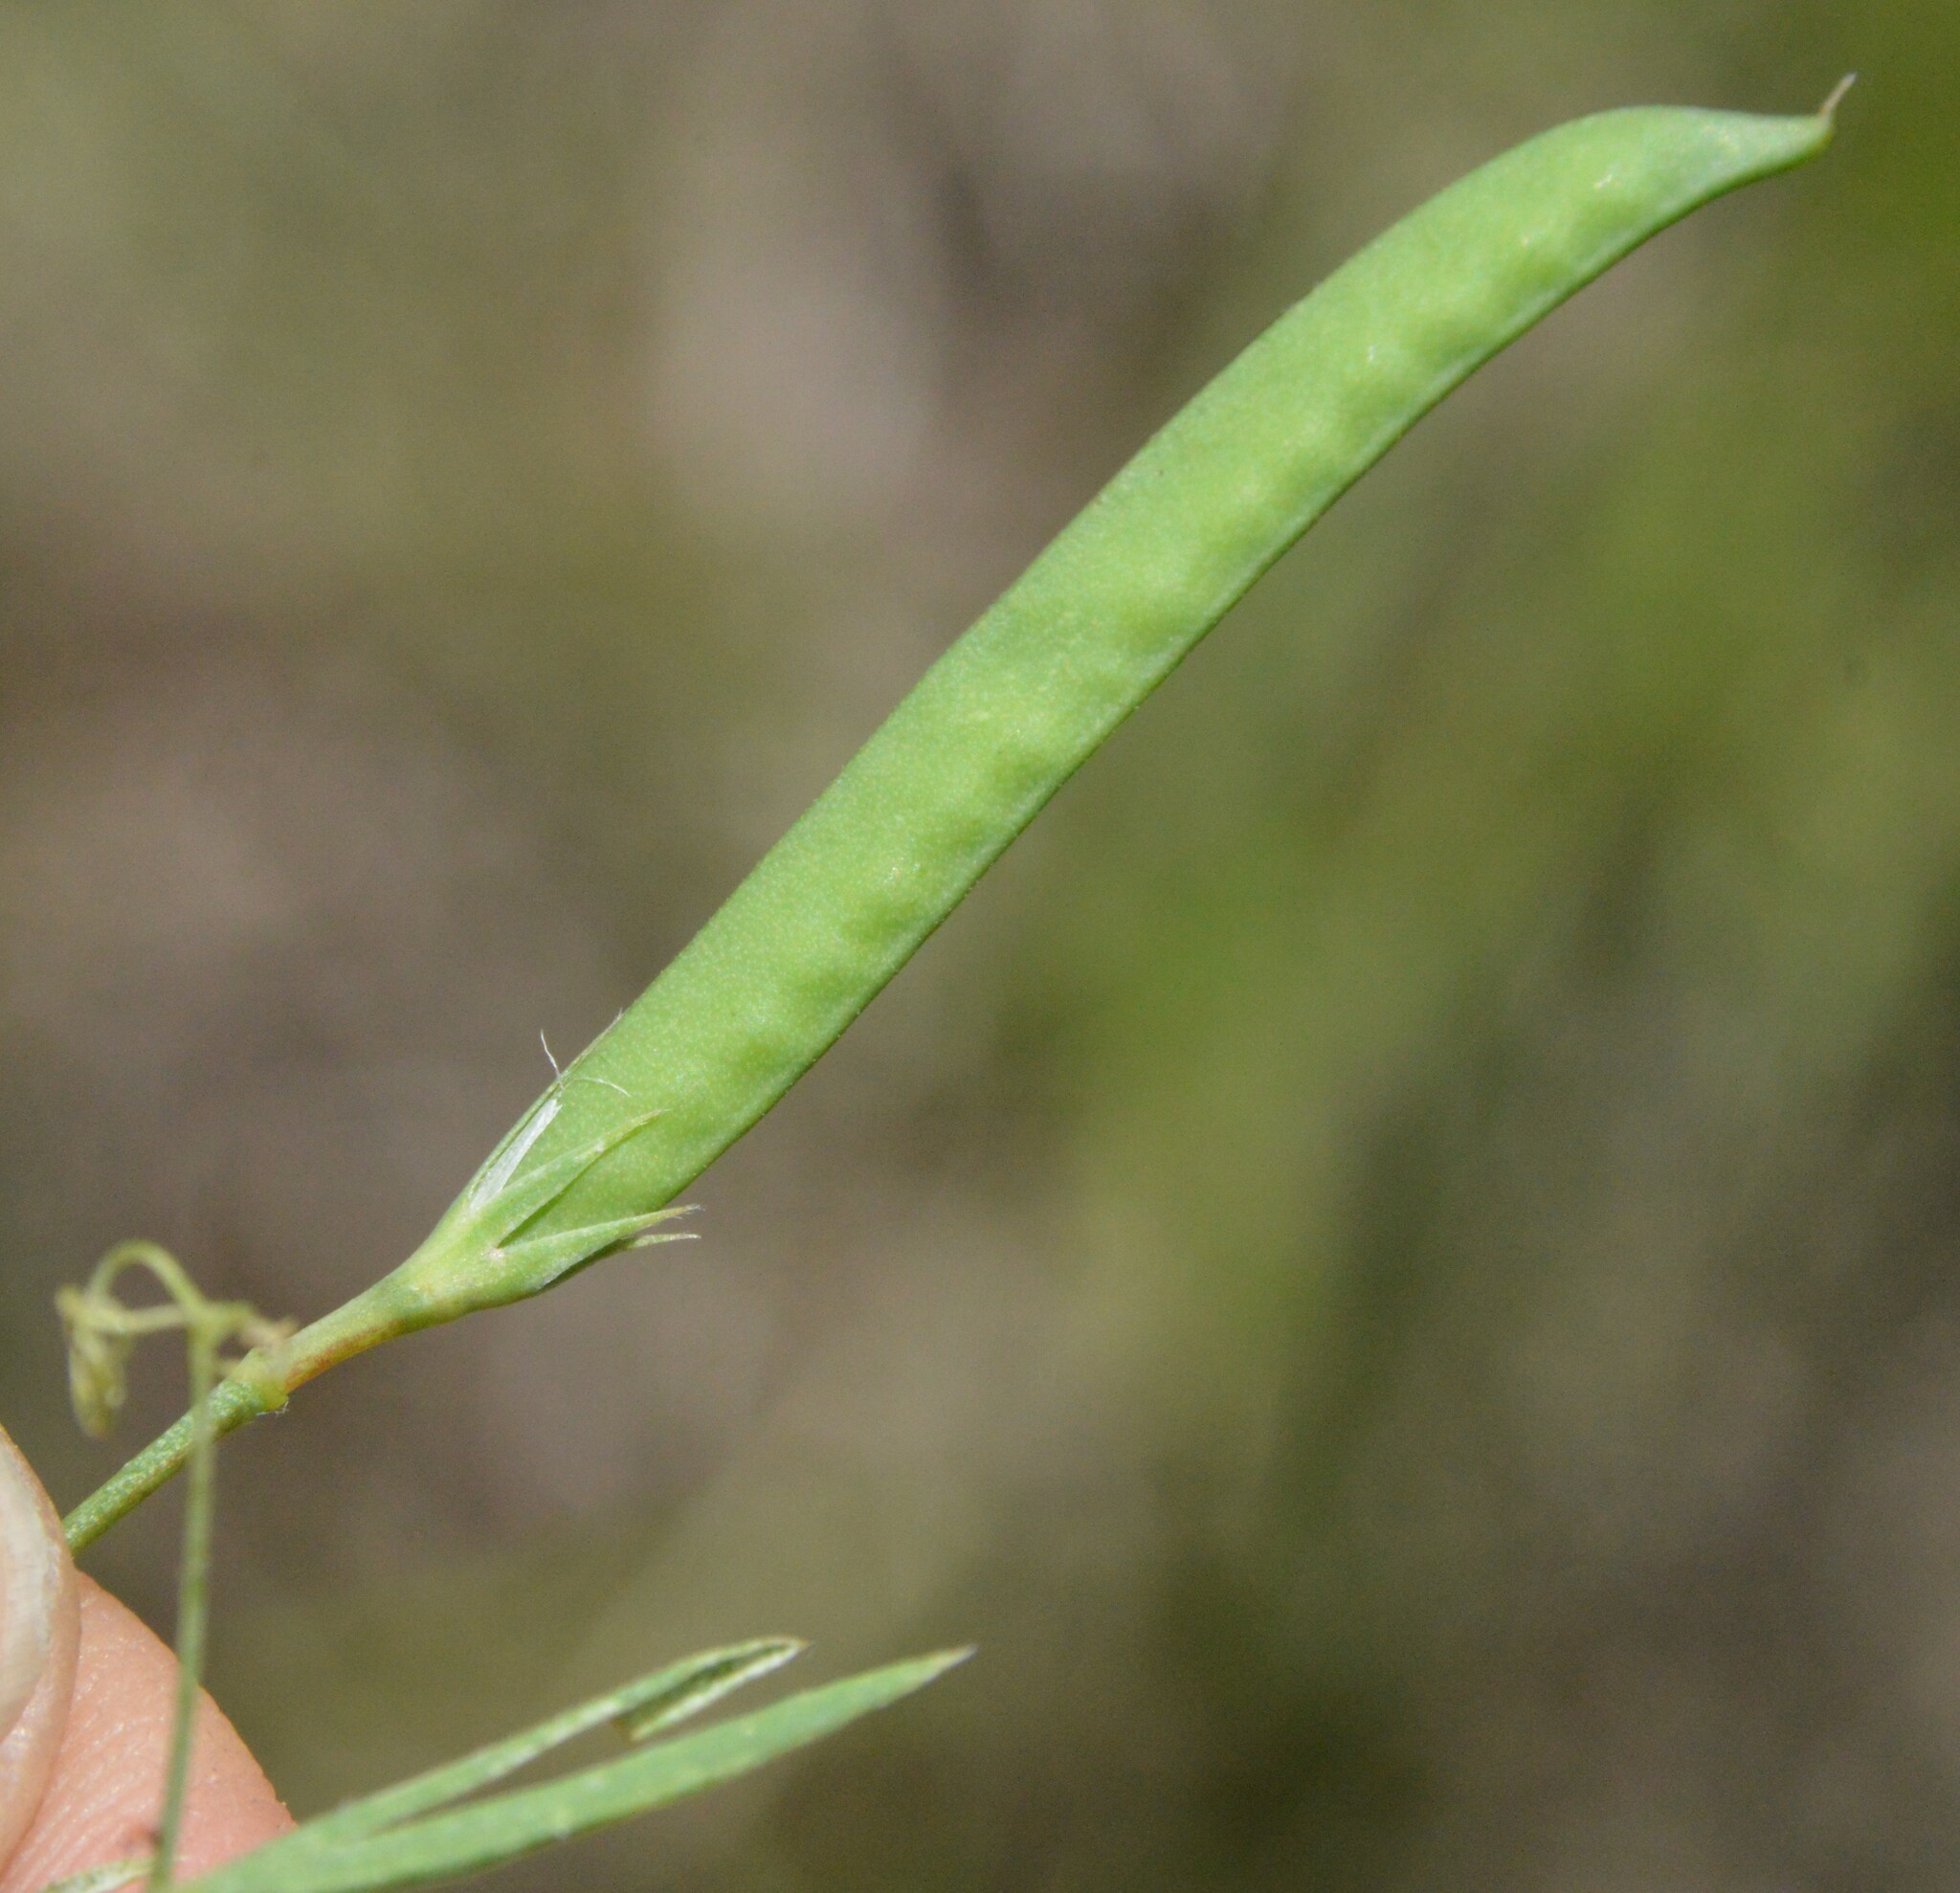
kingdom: Plantae
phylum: Tracheophyta
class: Magnoliopsida
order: Fabales
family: Fabaceae
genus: Lathyrus
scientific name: Lathyrus pusillus
